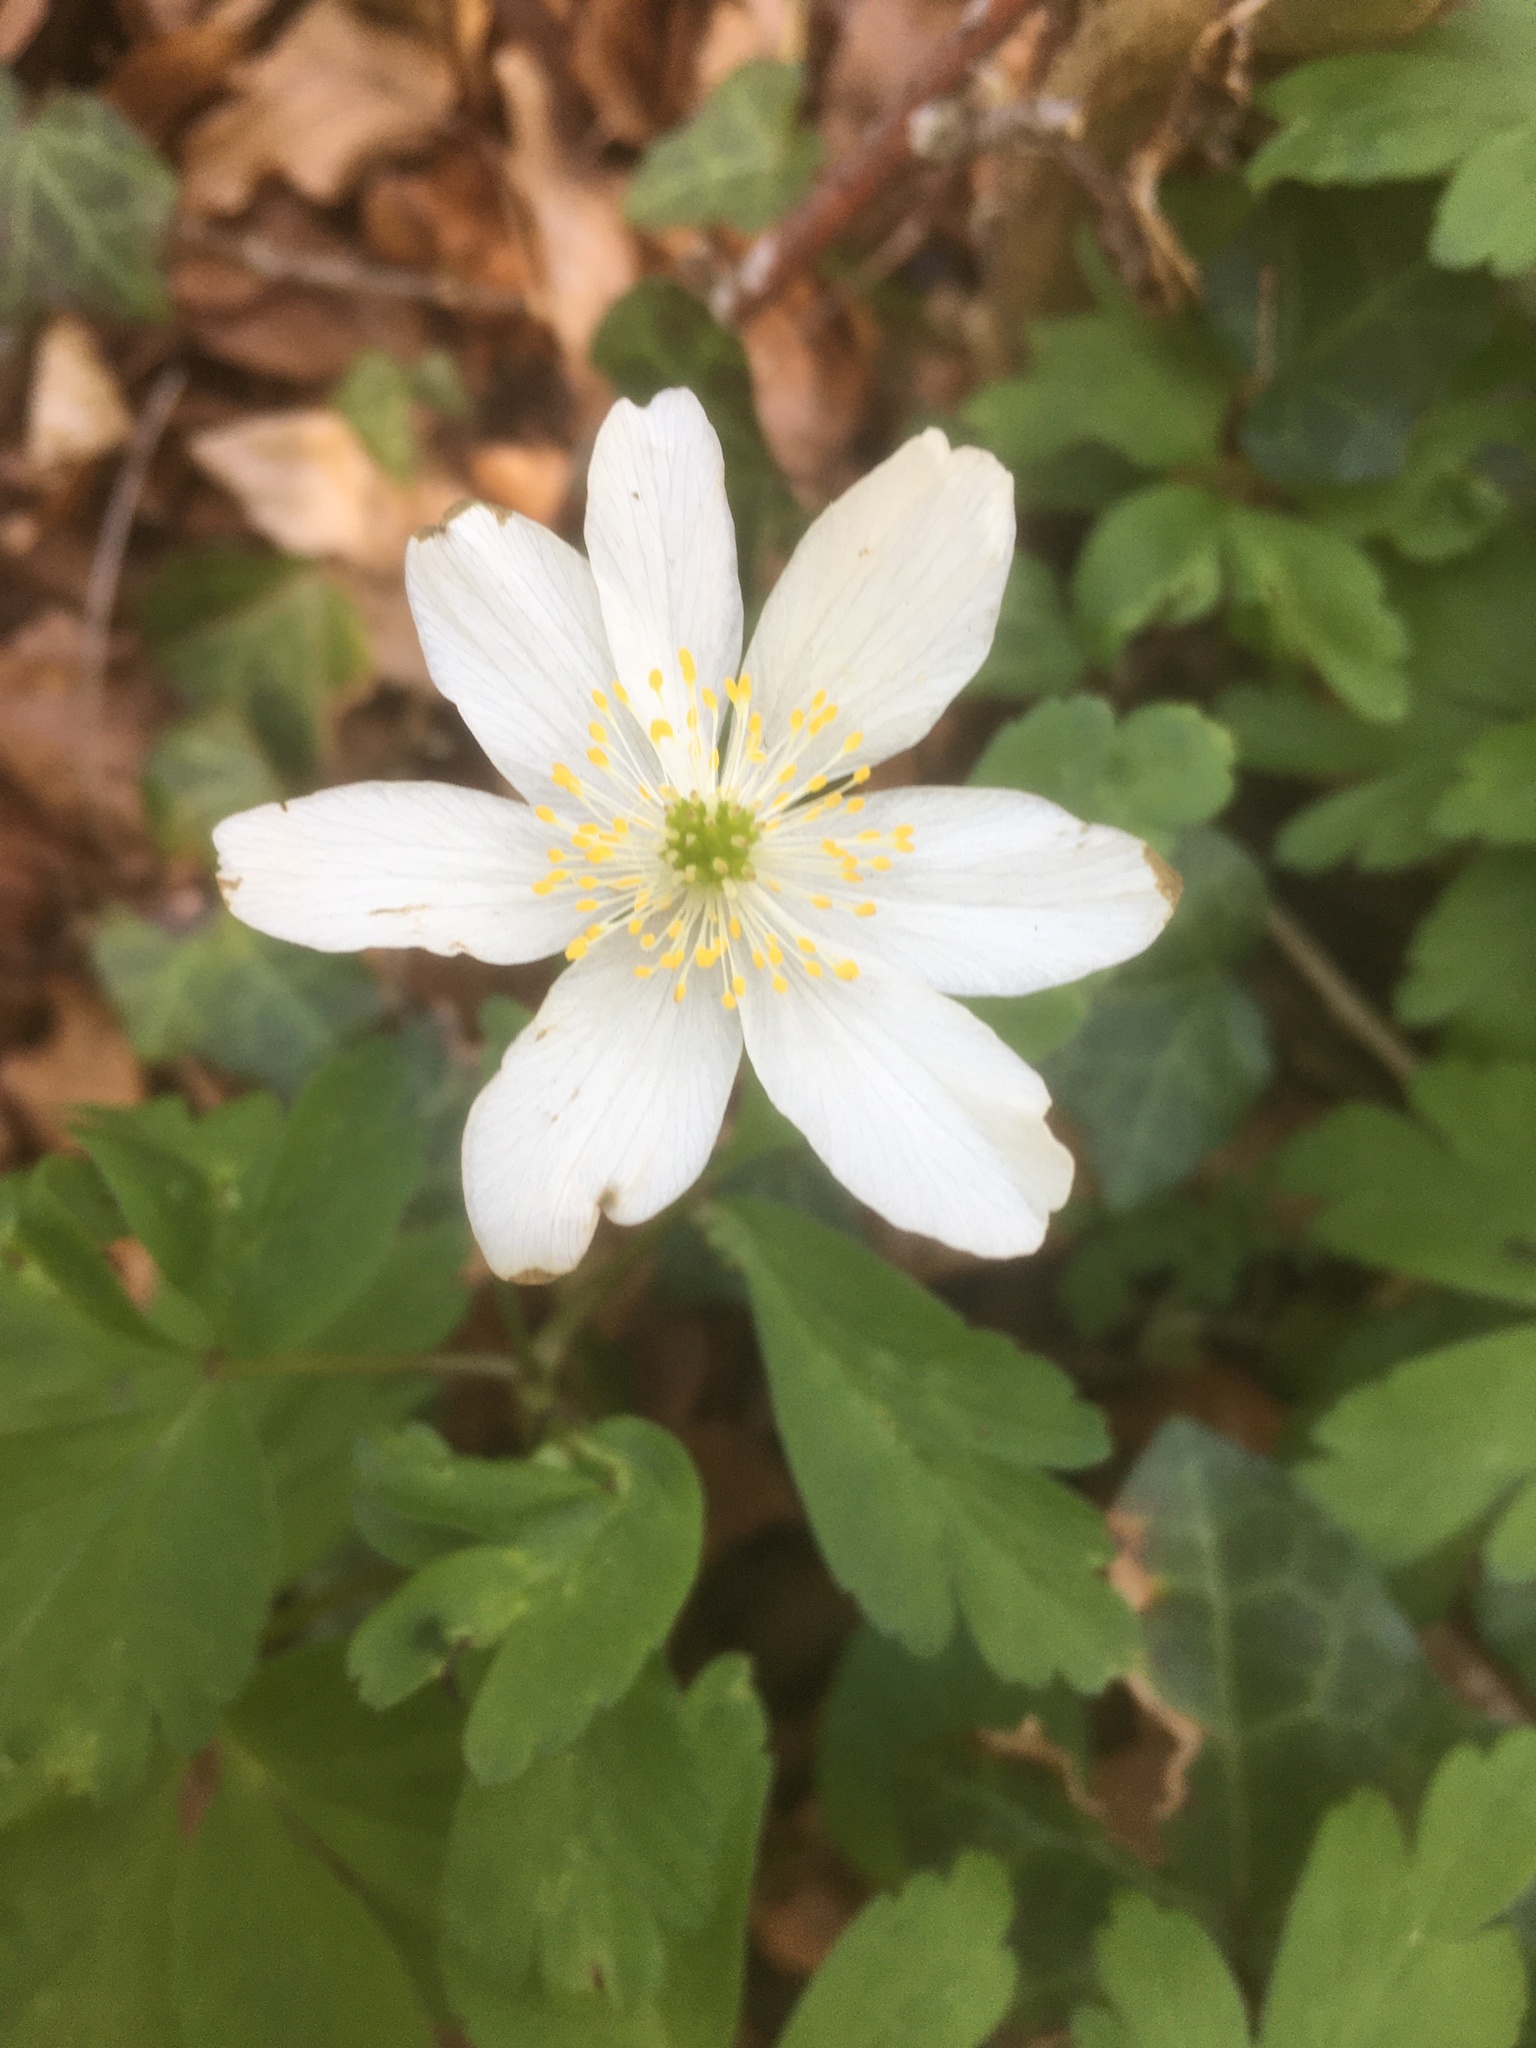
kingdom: Plantae
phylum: Tracheophyta
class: Magnoliopsida
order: Ranunculales
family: Ranunculaceae
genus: Anemone
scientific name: Anemone nemorosa
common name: Wood anemone
